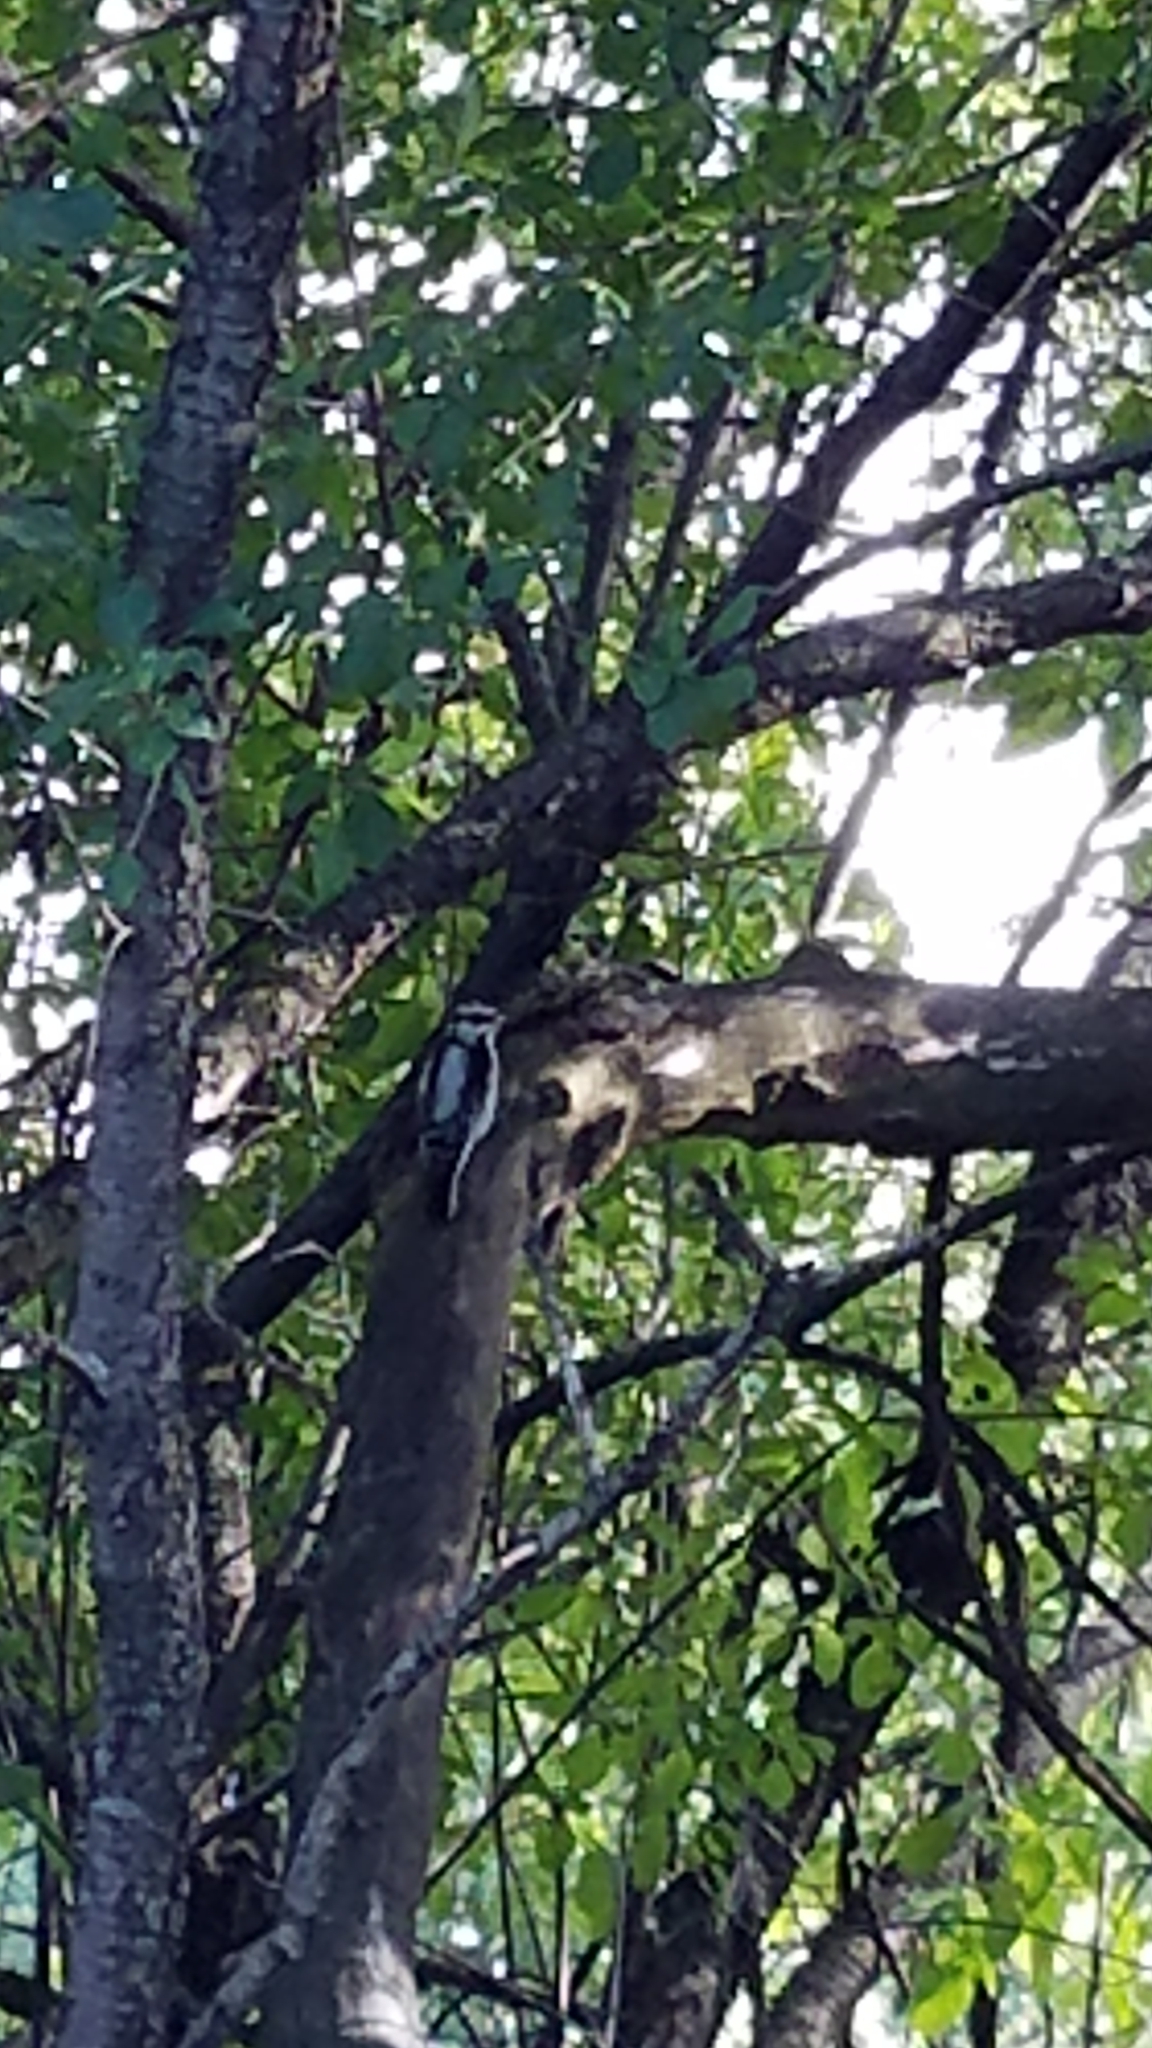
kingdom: Animalia
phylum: Chordata
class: Aves
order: Piciformes
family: Picidae
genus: Dryobates
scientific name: Dryobates pubescens
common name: Downy woodpecker
